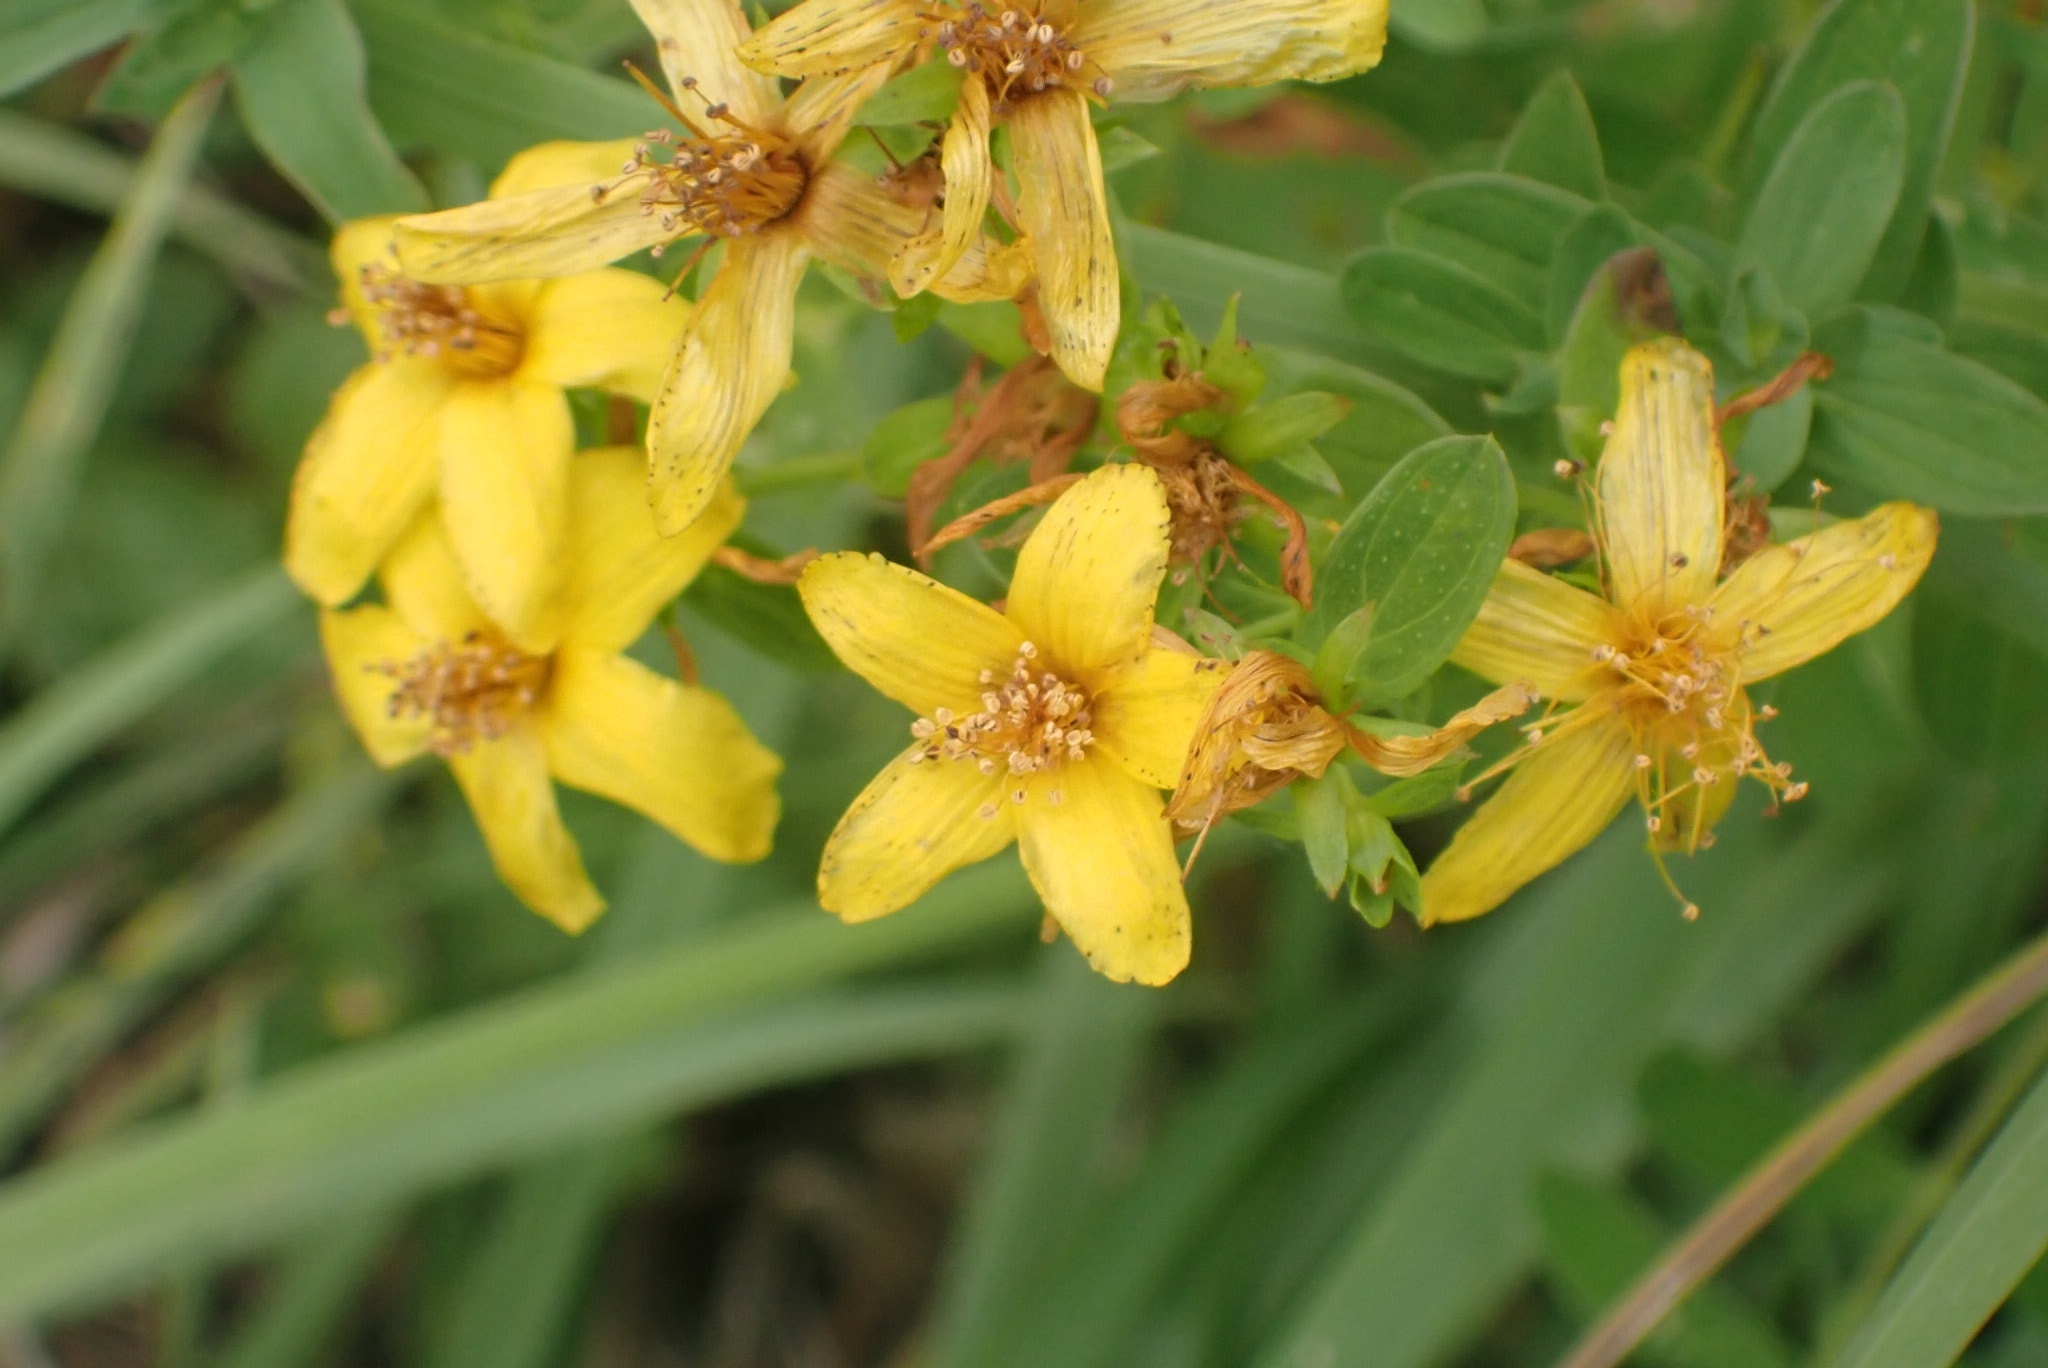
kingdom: Plantae
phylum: Tracheophyta
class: Magnoliopsida
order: Malpighiales
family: Hypericaceae
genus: Hypericum
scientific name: Hypericum perforatum
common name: Common st. johnswort
